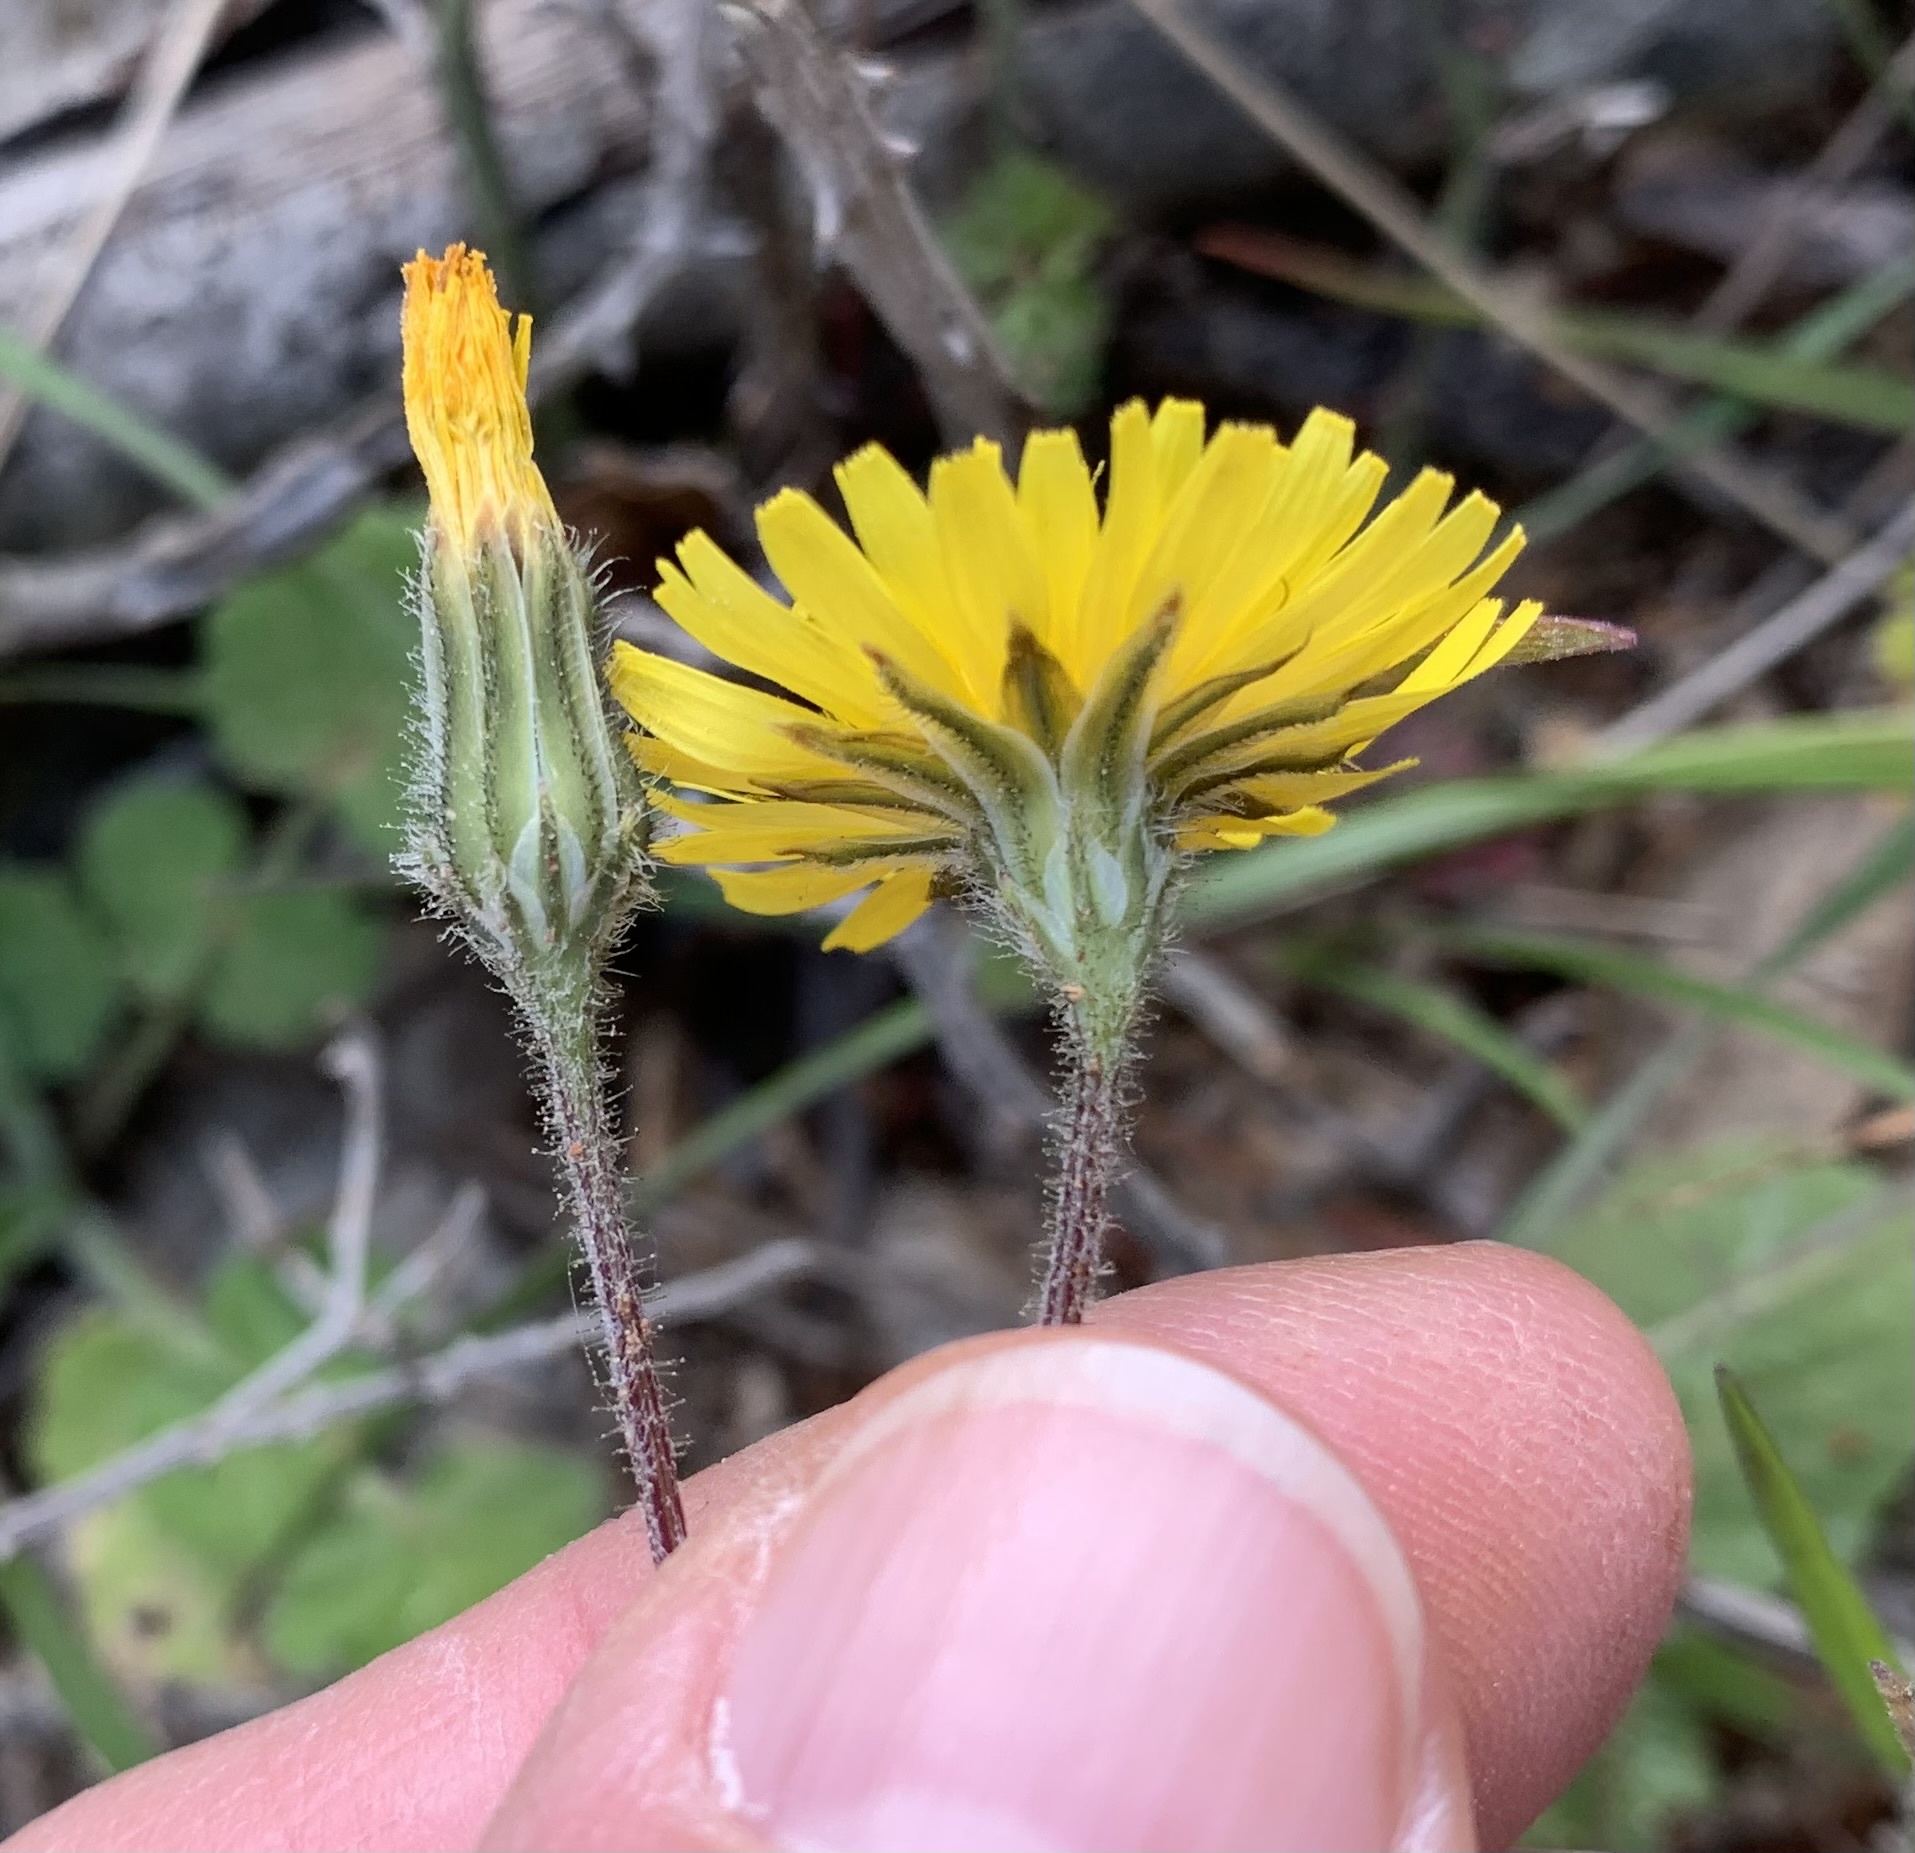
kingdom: Plantae
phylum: Tracheophyta
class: Magnoliopsida
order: Asterales
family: Asteraceae
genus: Crepis
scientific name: Crepis sancta
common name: Hawk's-beard
